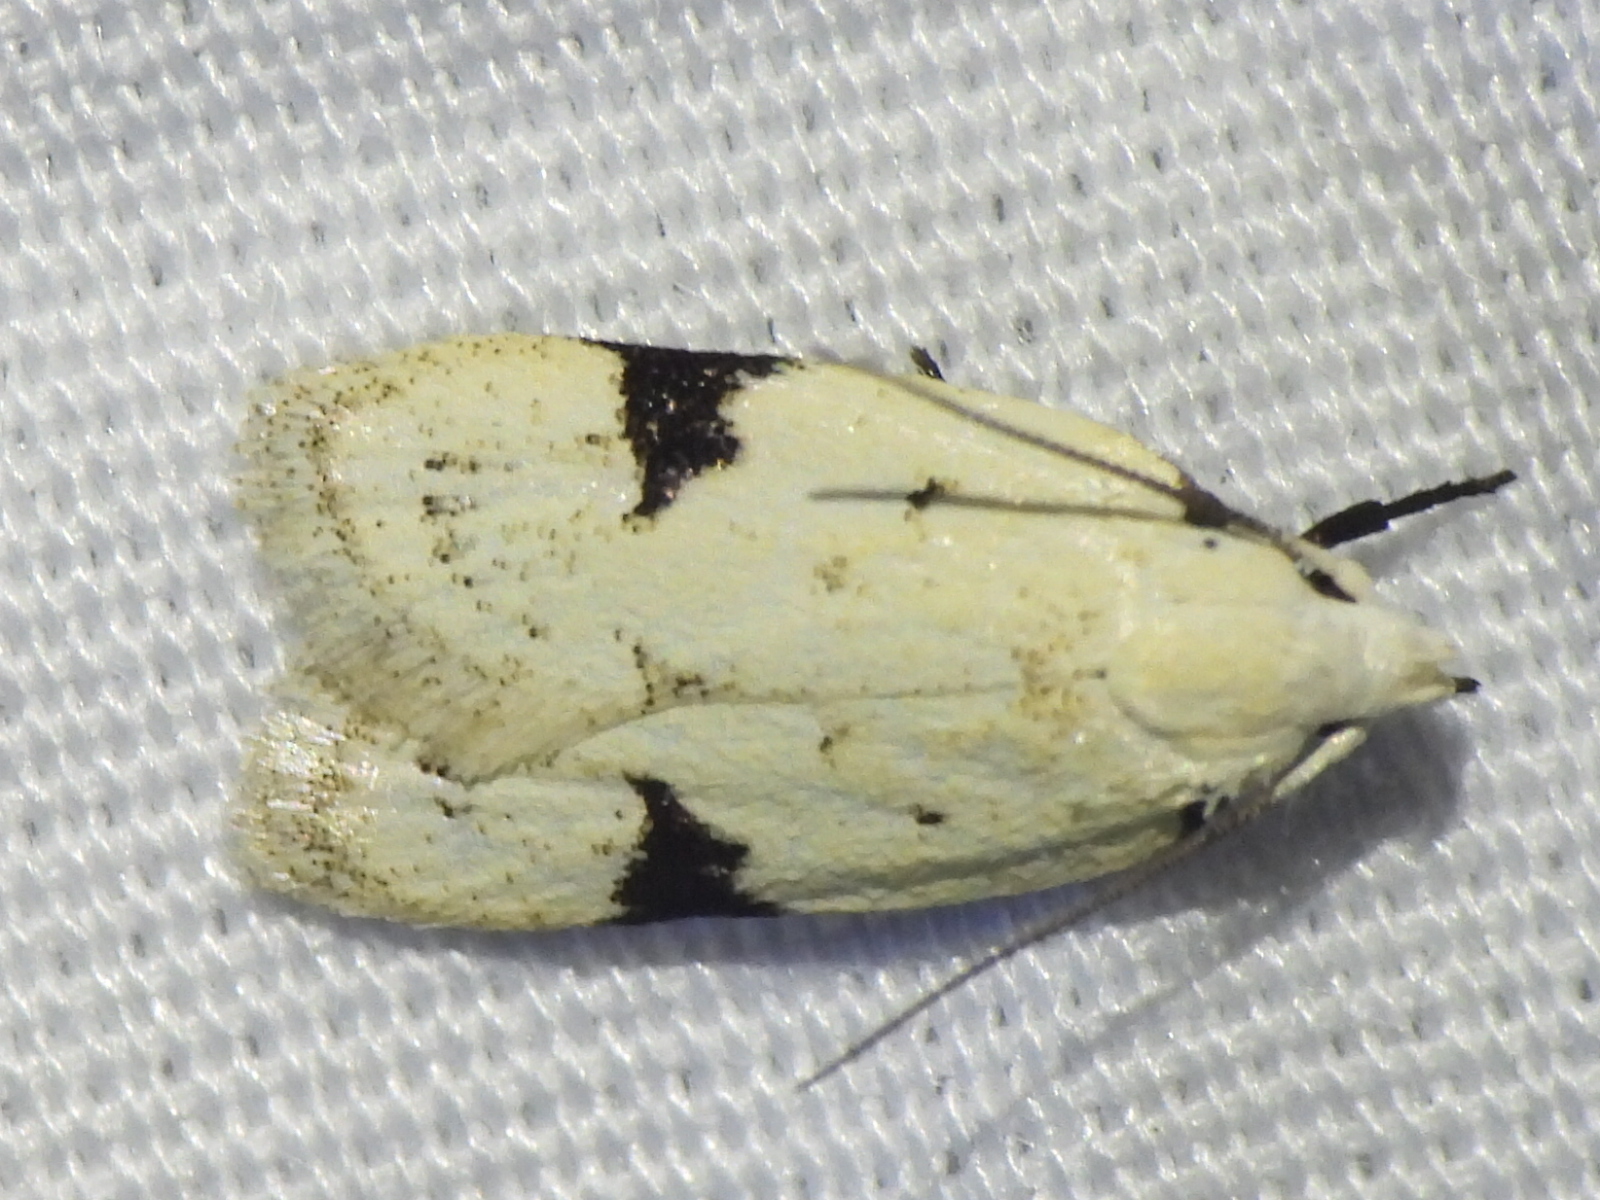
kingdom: Animalia
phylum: Arthropoda
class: Insecta
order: Lepidoptera
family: Oecophoridae
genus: Inga
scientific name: Inga sparsiciliella
